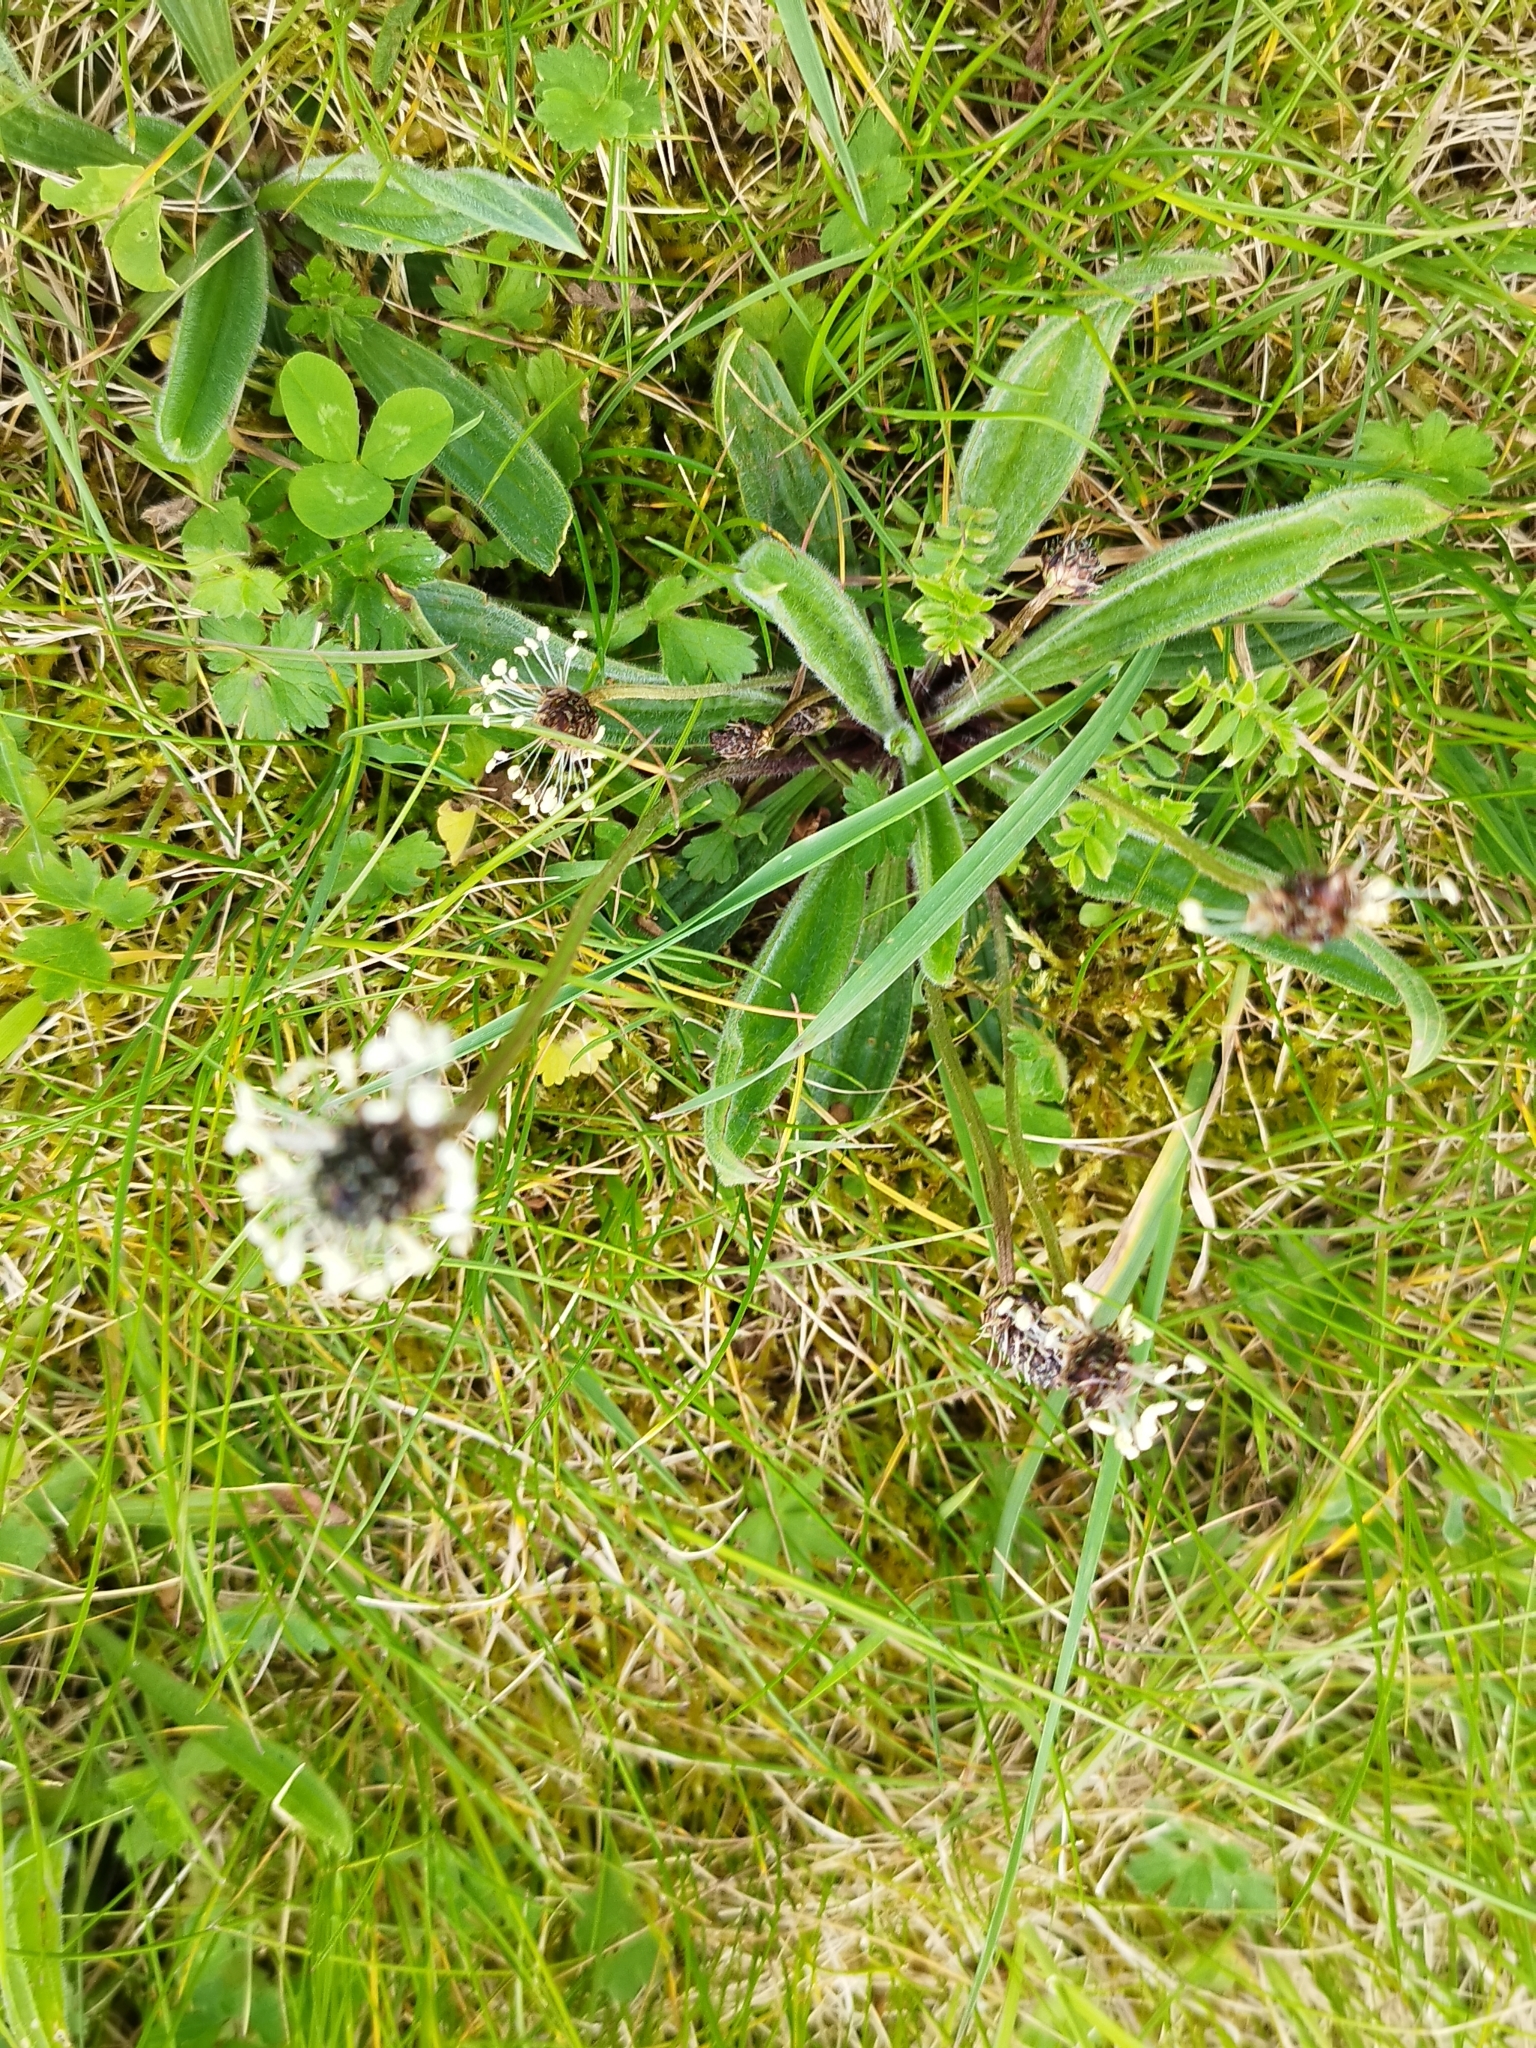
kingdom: Plantae
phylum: Tracheophyta
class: Magnoliopsida
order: Lamiales
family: Plantaginaceae
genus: Plantago
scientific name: Plantago lanceolata
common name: Ribwort plantain
